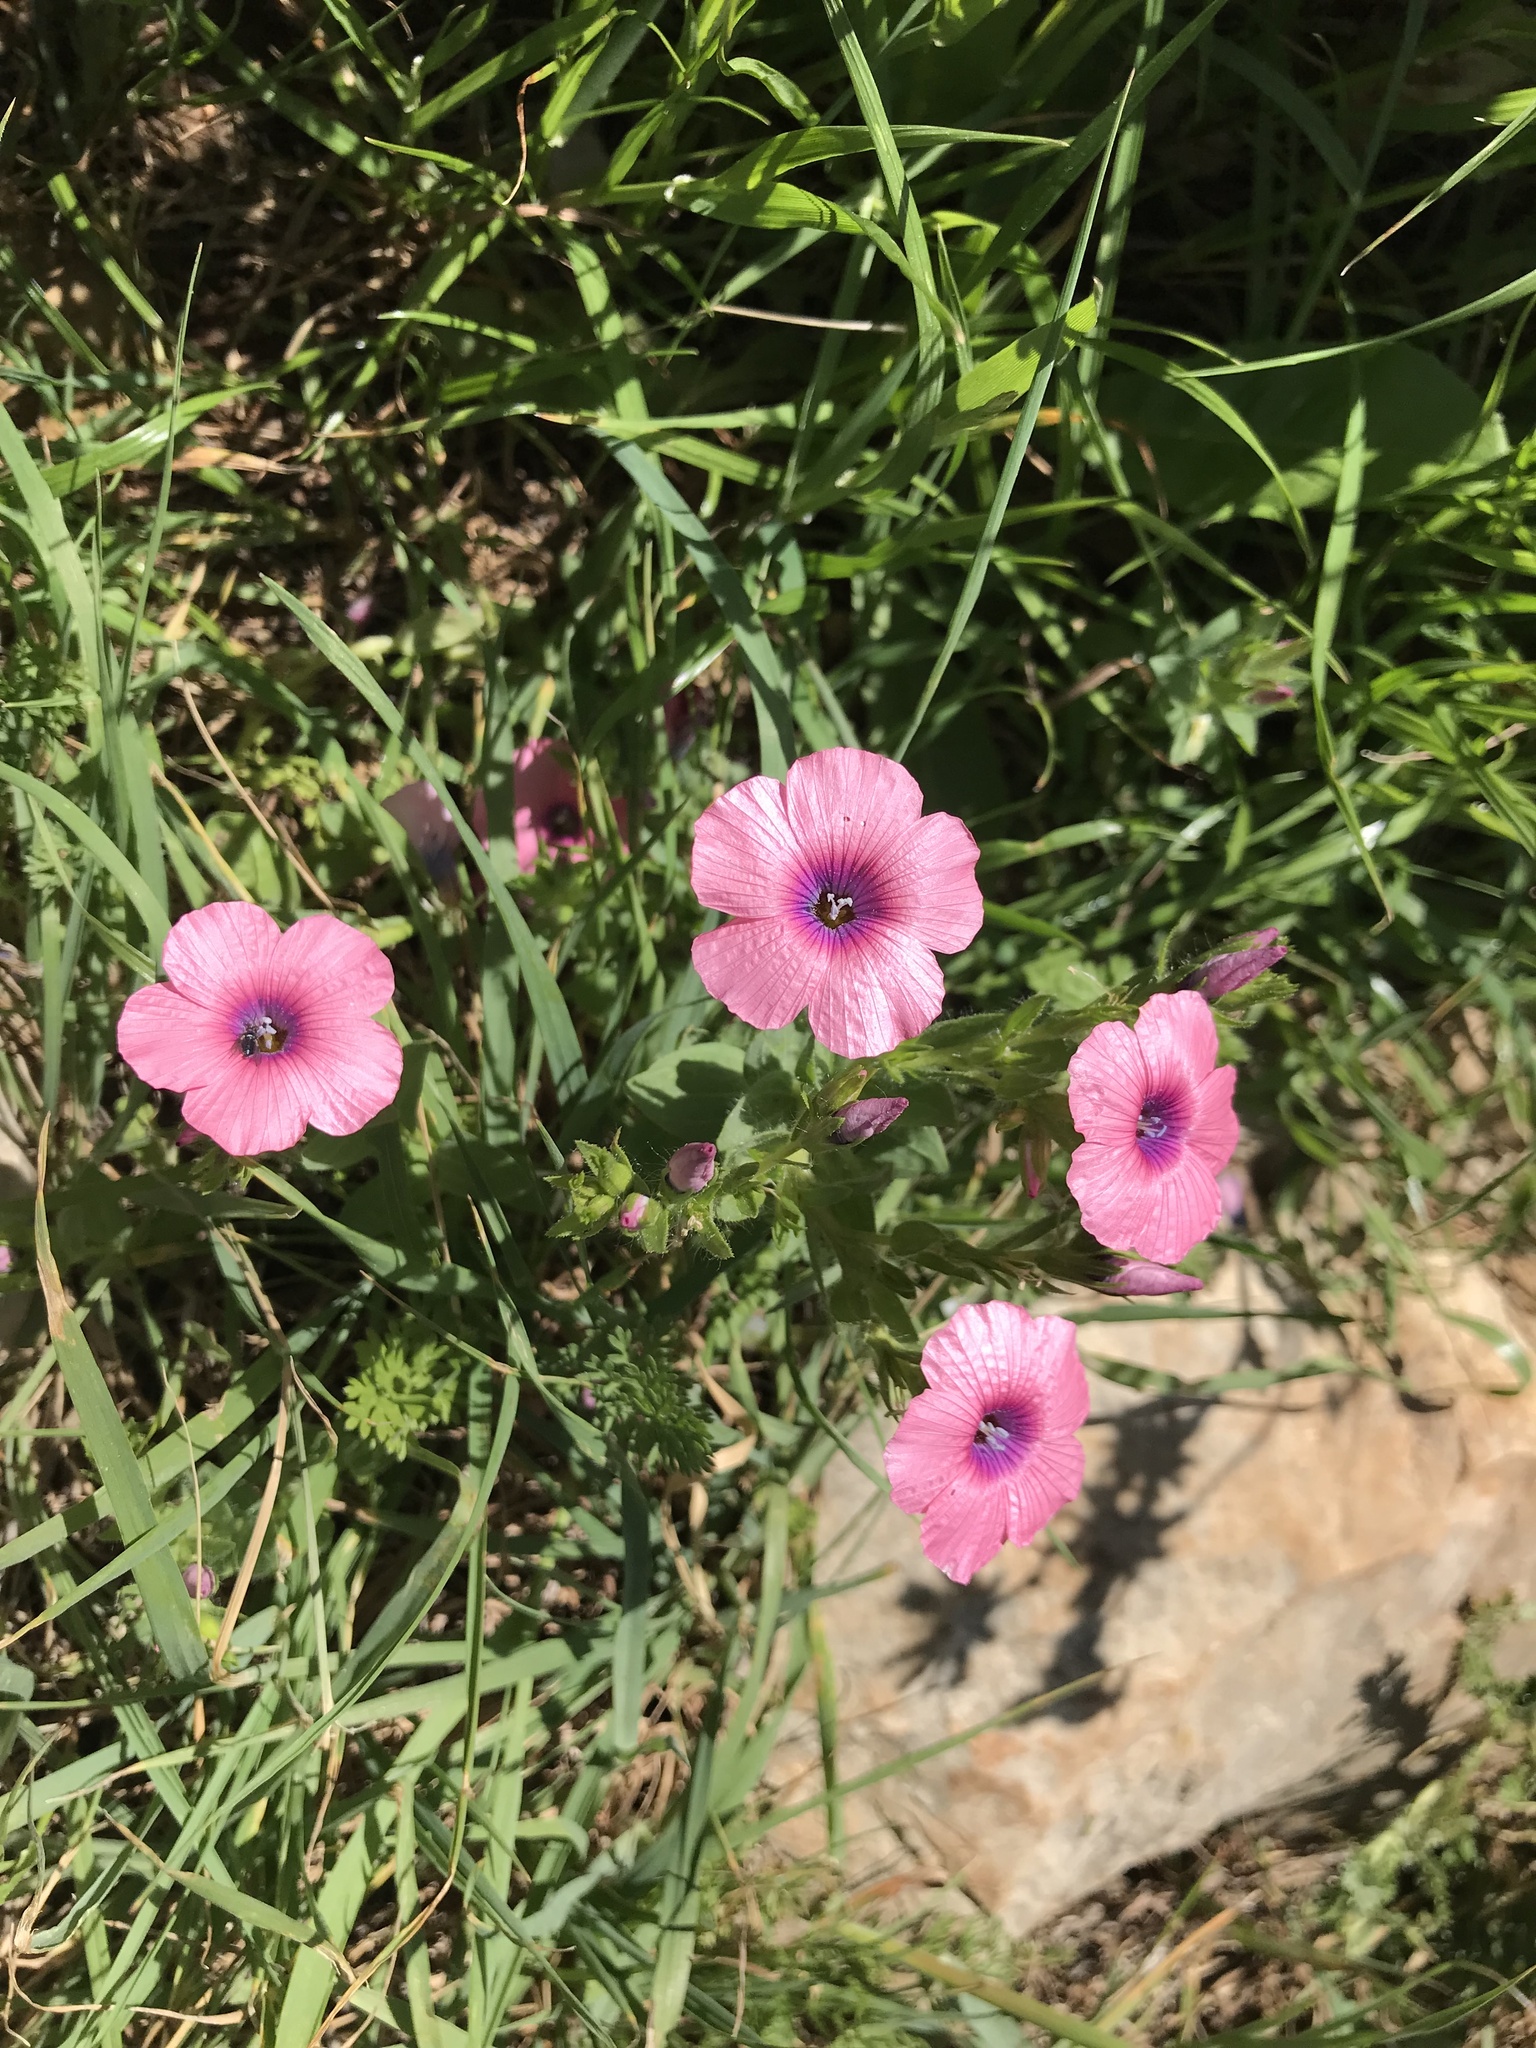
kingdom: Plantae
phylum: Tracheophyta
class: Magnoliopsida
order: Malpighiales
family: Linaceae
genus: Linum
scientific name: Linum pubescens
